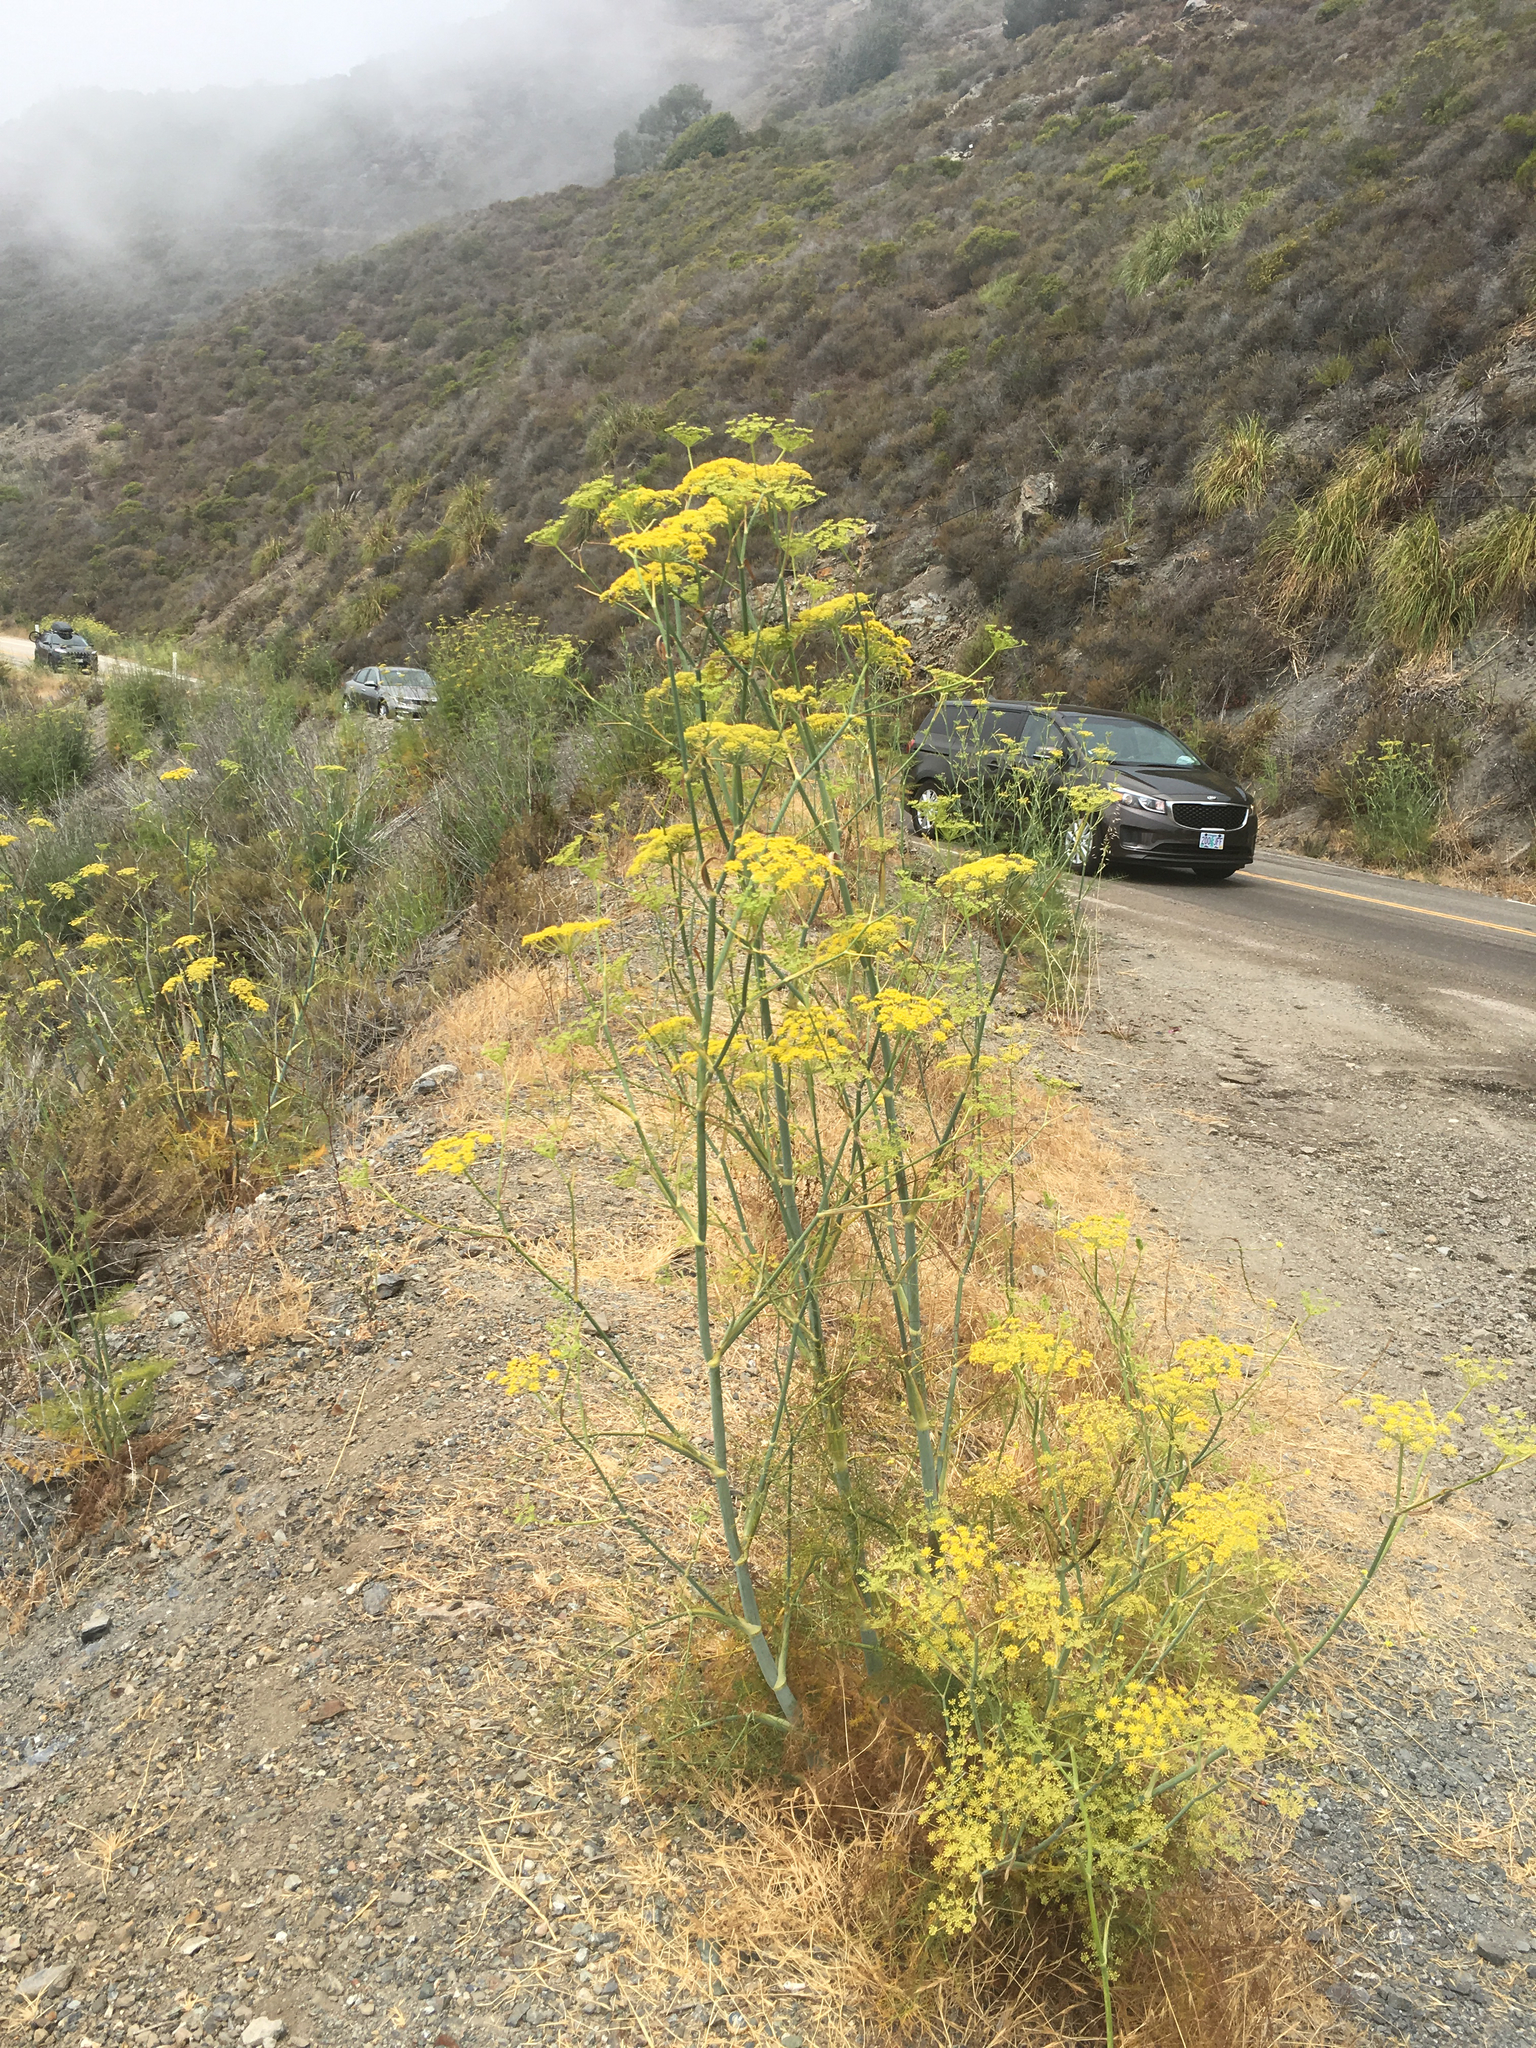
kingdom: Plantae
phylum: Tracheophyta
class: Magnoliopsida
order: Apiales
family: Apiaceae
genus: Foeniculum
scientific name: Foeniculum vulgare
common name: Fennel
